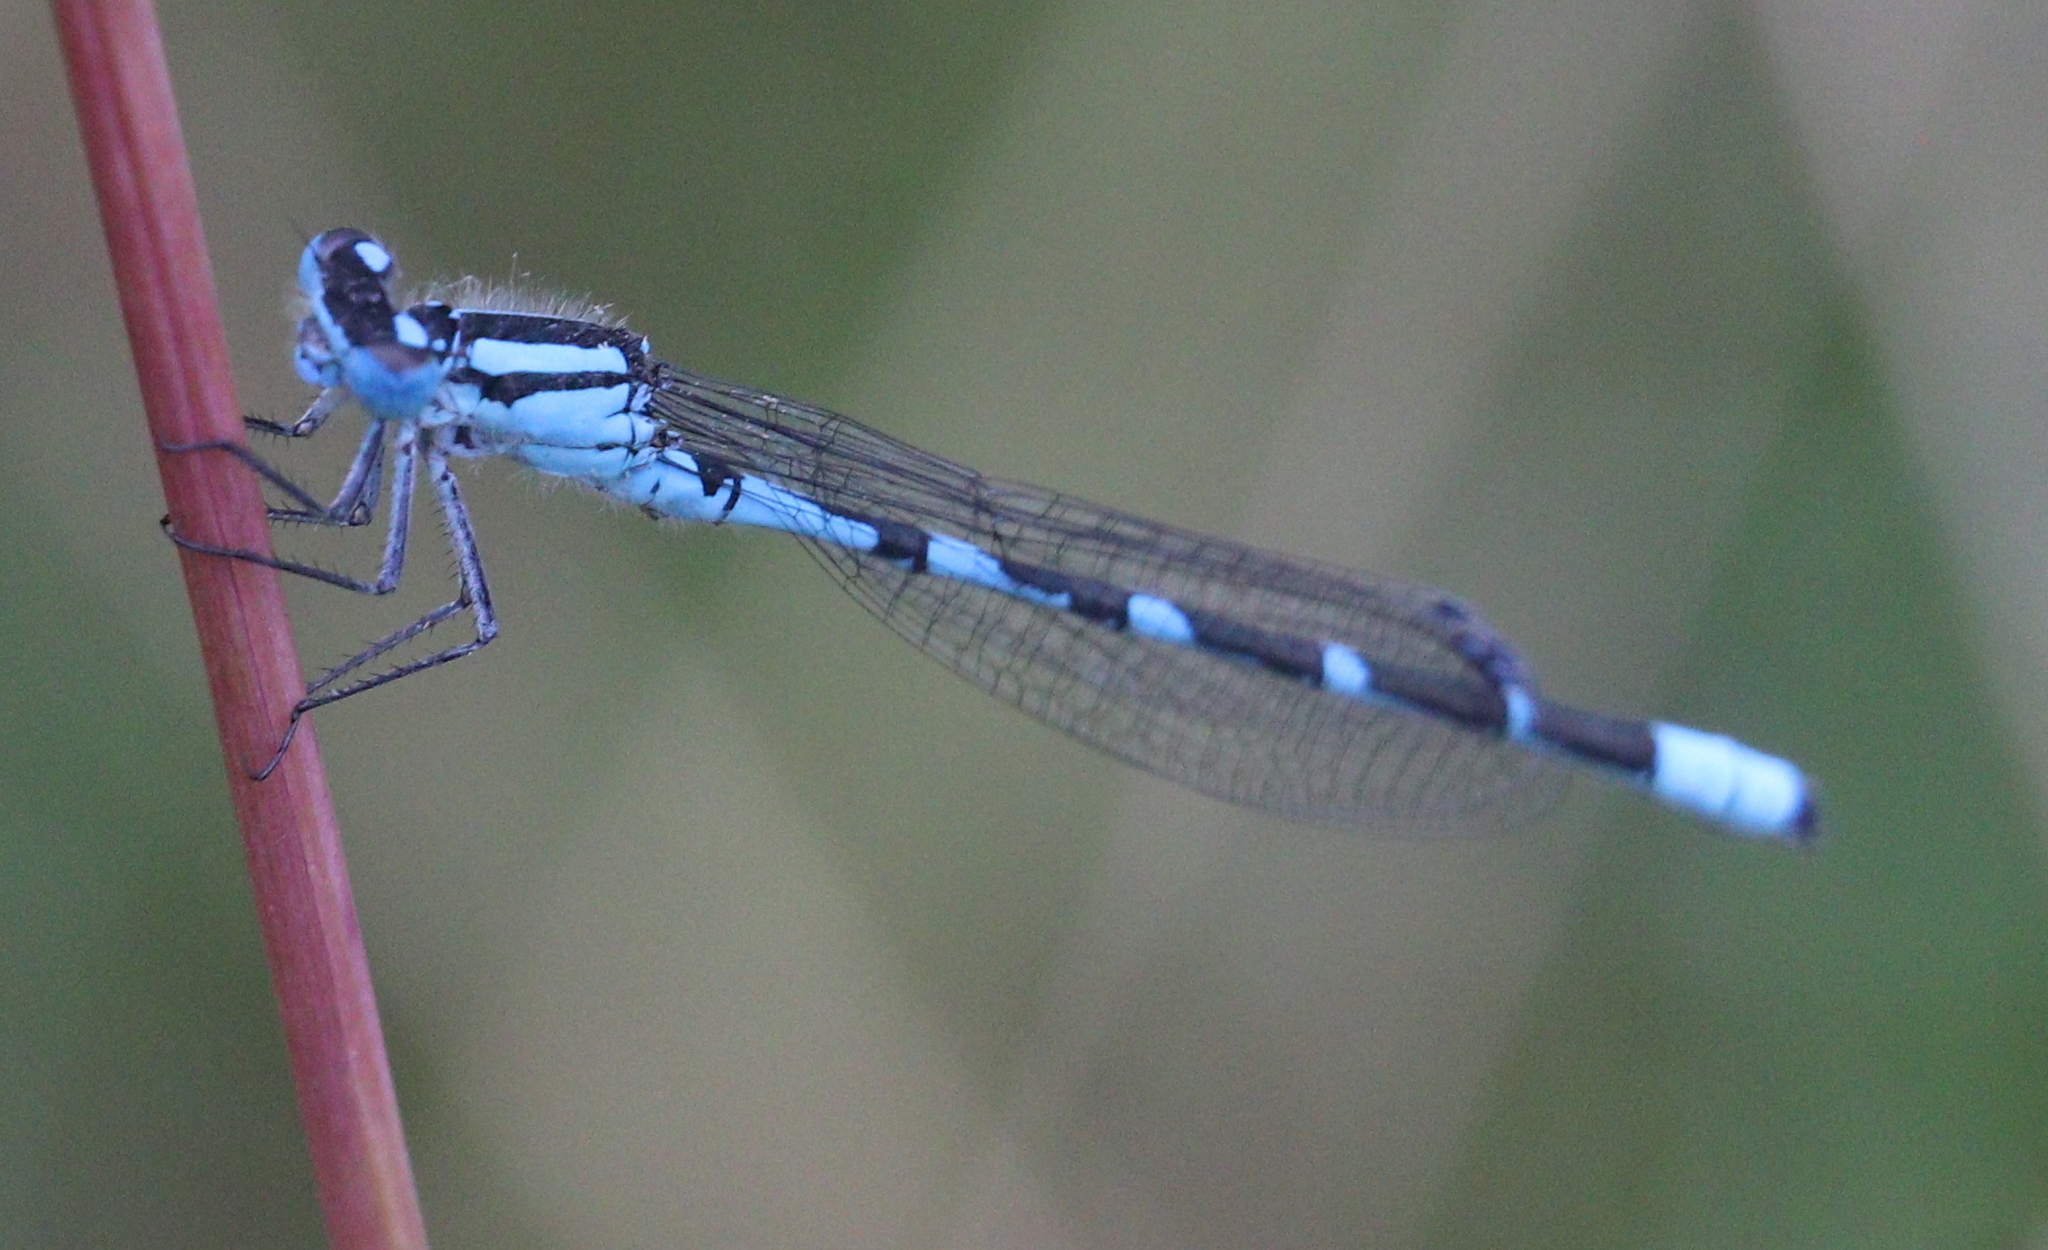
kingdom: Animalia
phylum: Arthropoda
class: Insecta
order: Odonata
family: Coenagrionidae
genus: Enallagma
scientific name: Enallagma cyathigerum
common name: Common blue damselfly
